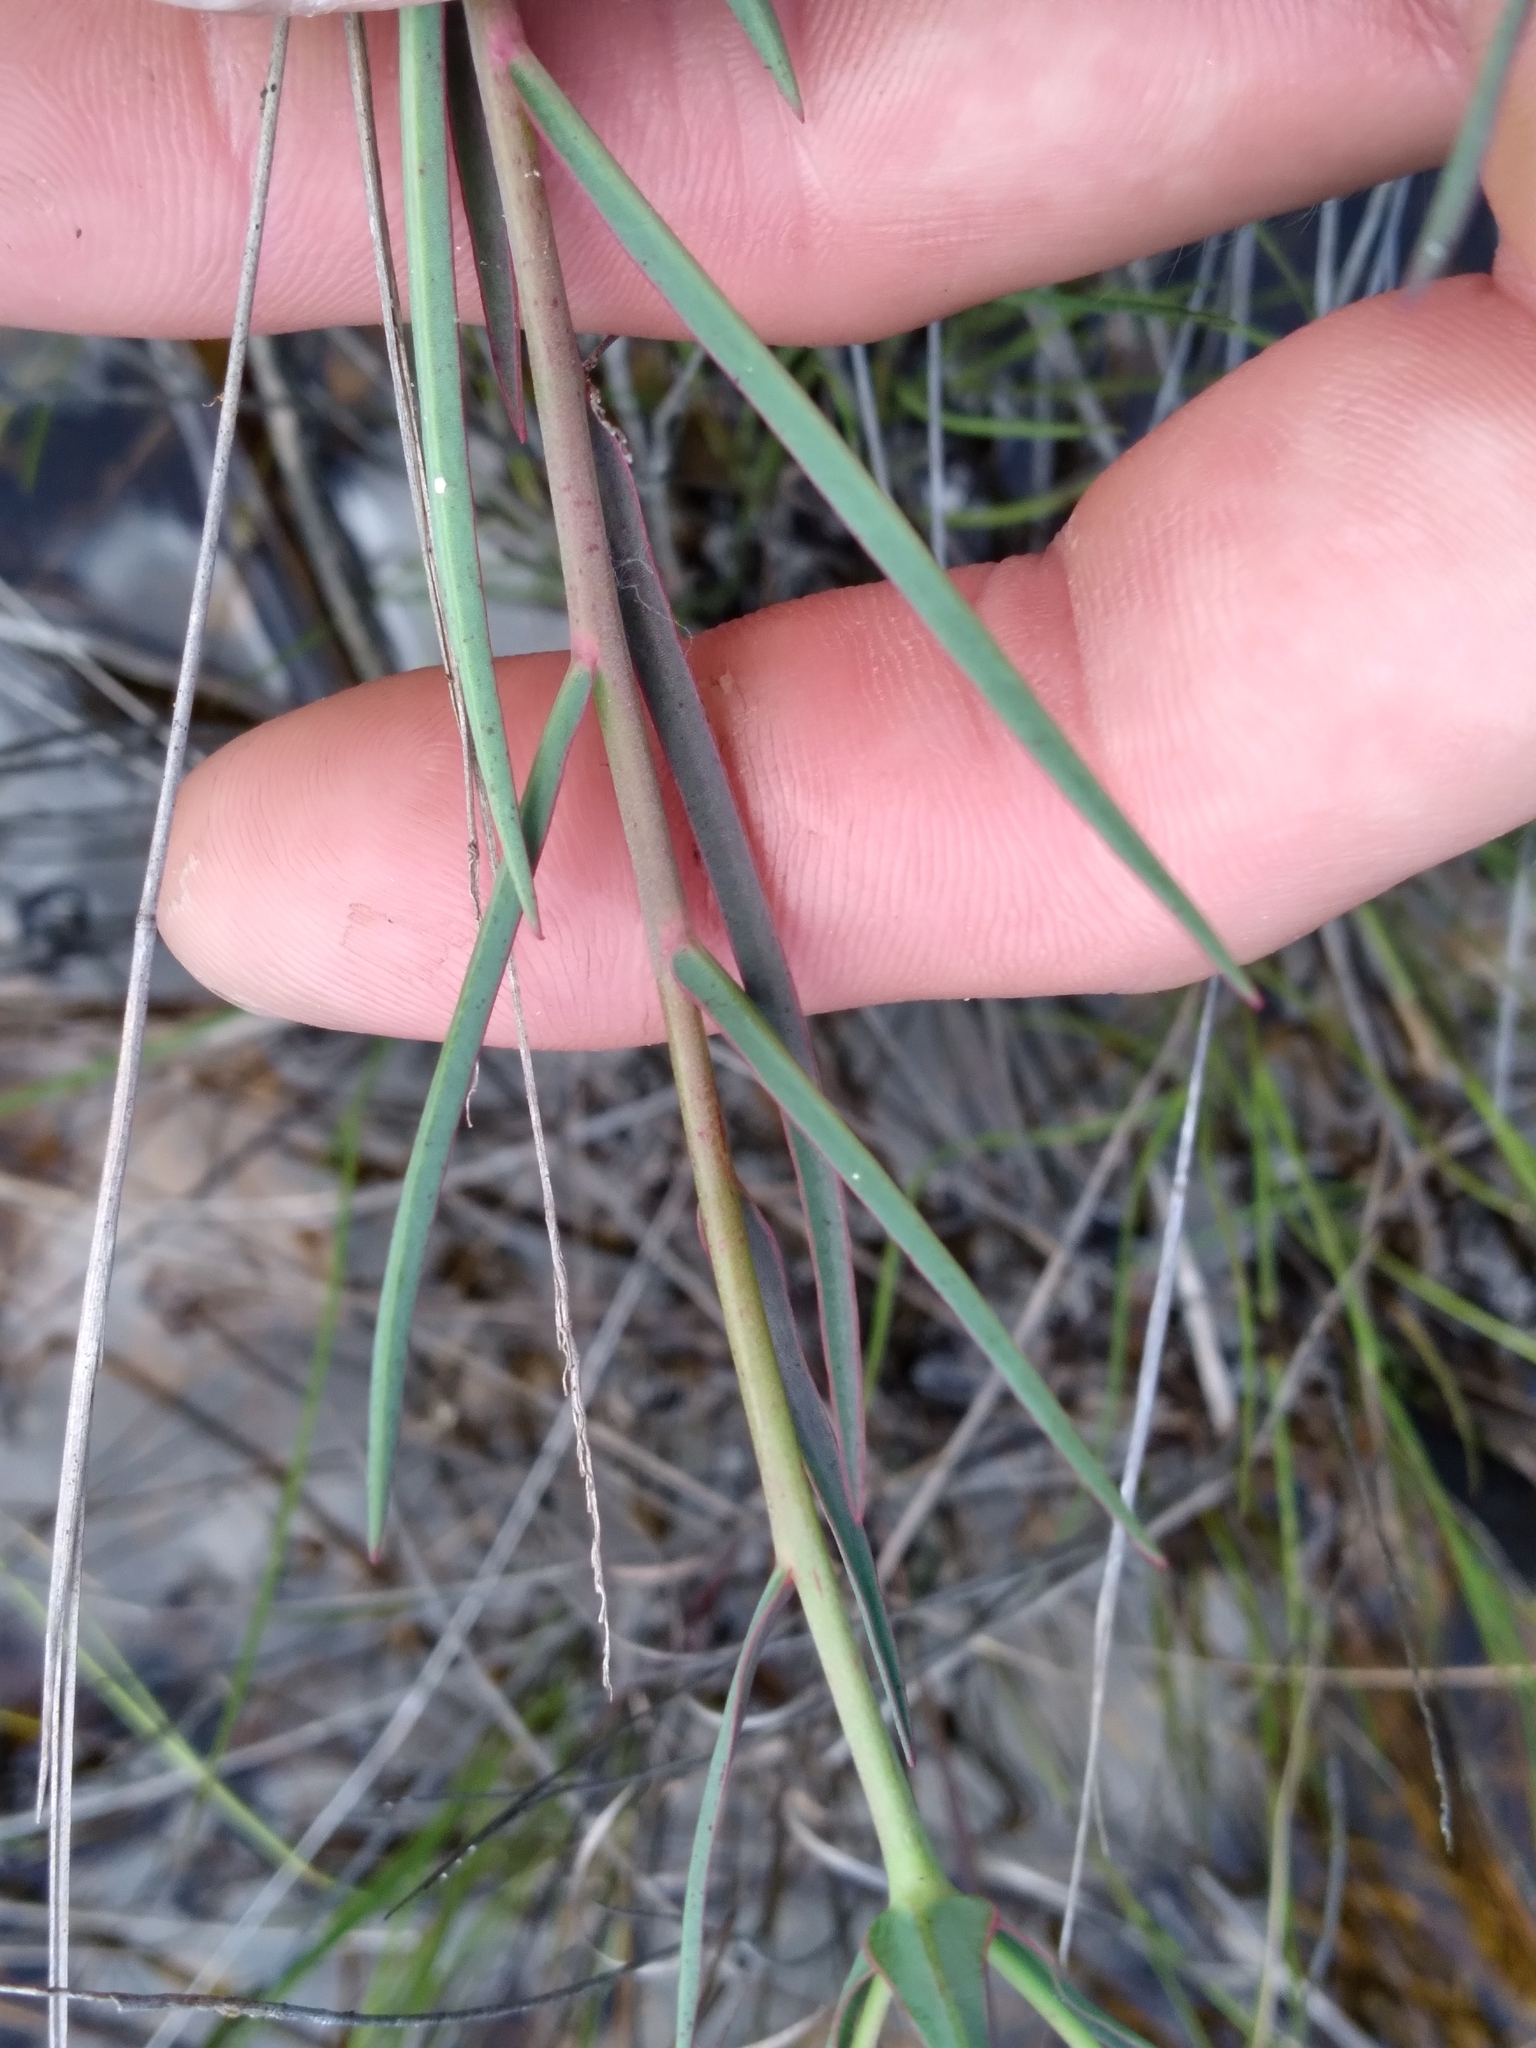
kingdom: Plantae
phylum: Tracheophyta
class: Magnoliopsida
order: Malpighiales
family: Euphorbiaceae
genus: Euphorbia
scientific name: Euphorbia inundata
